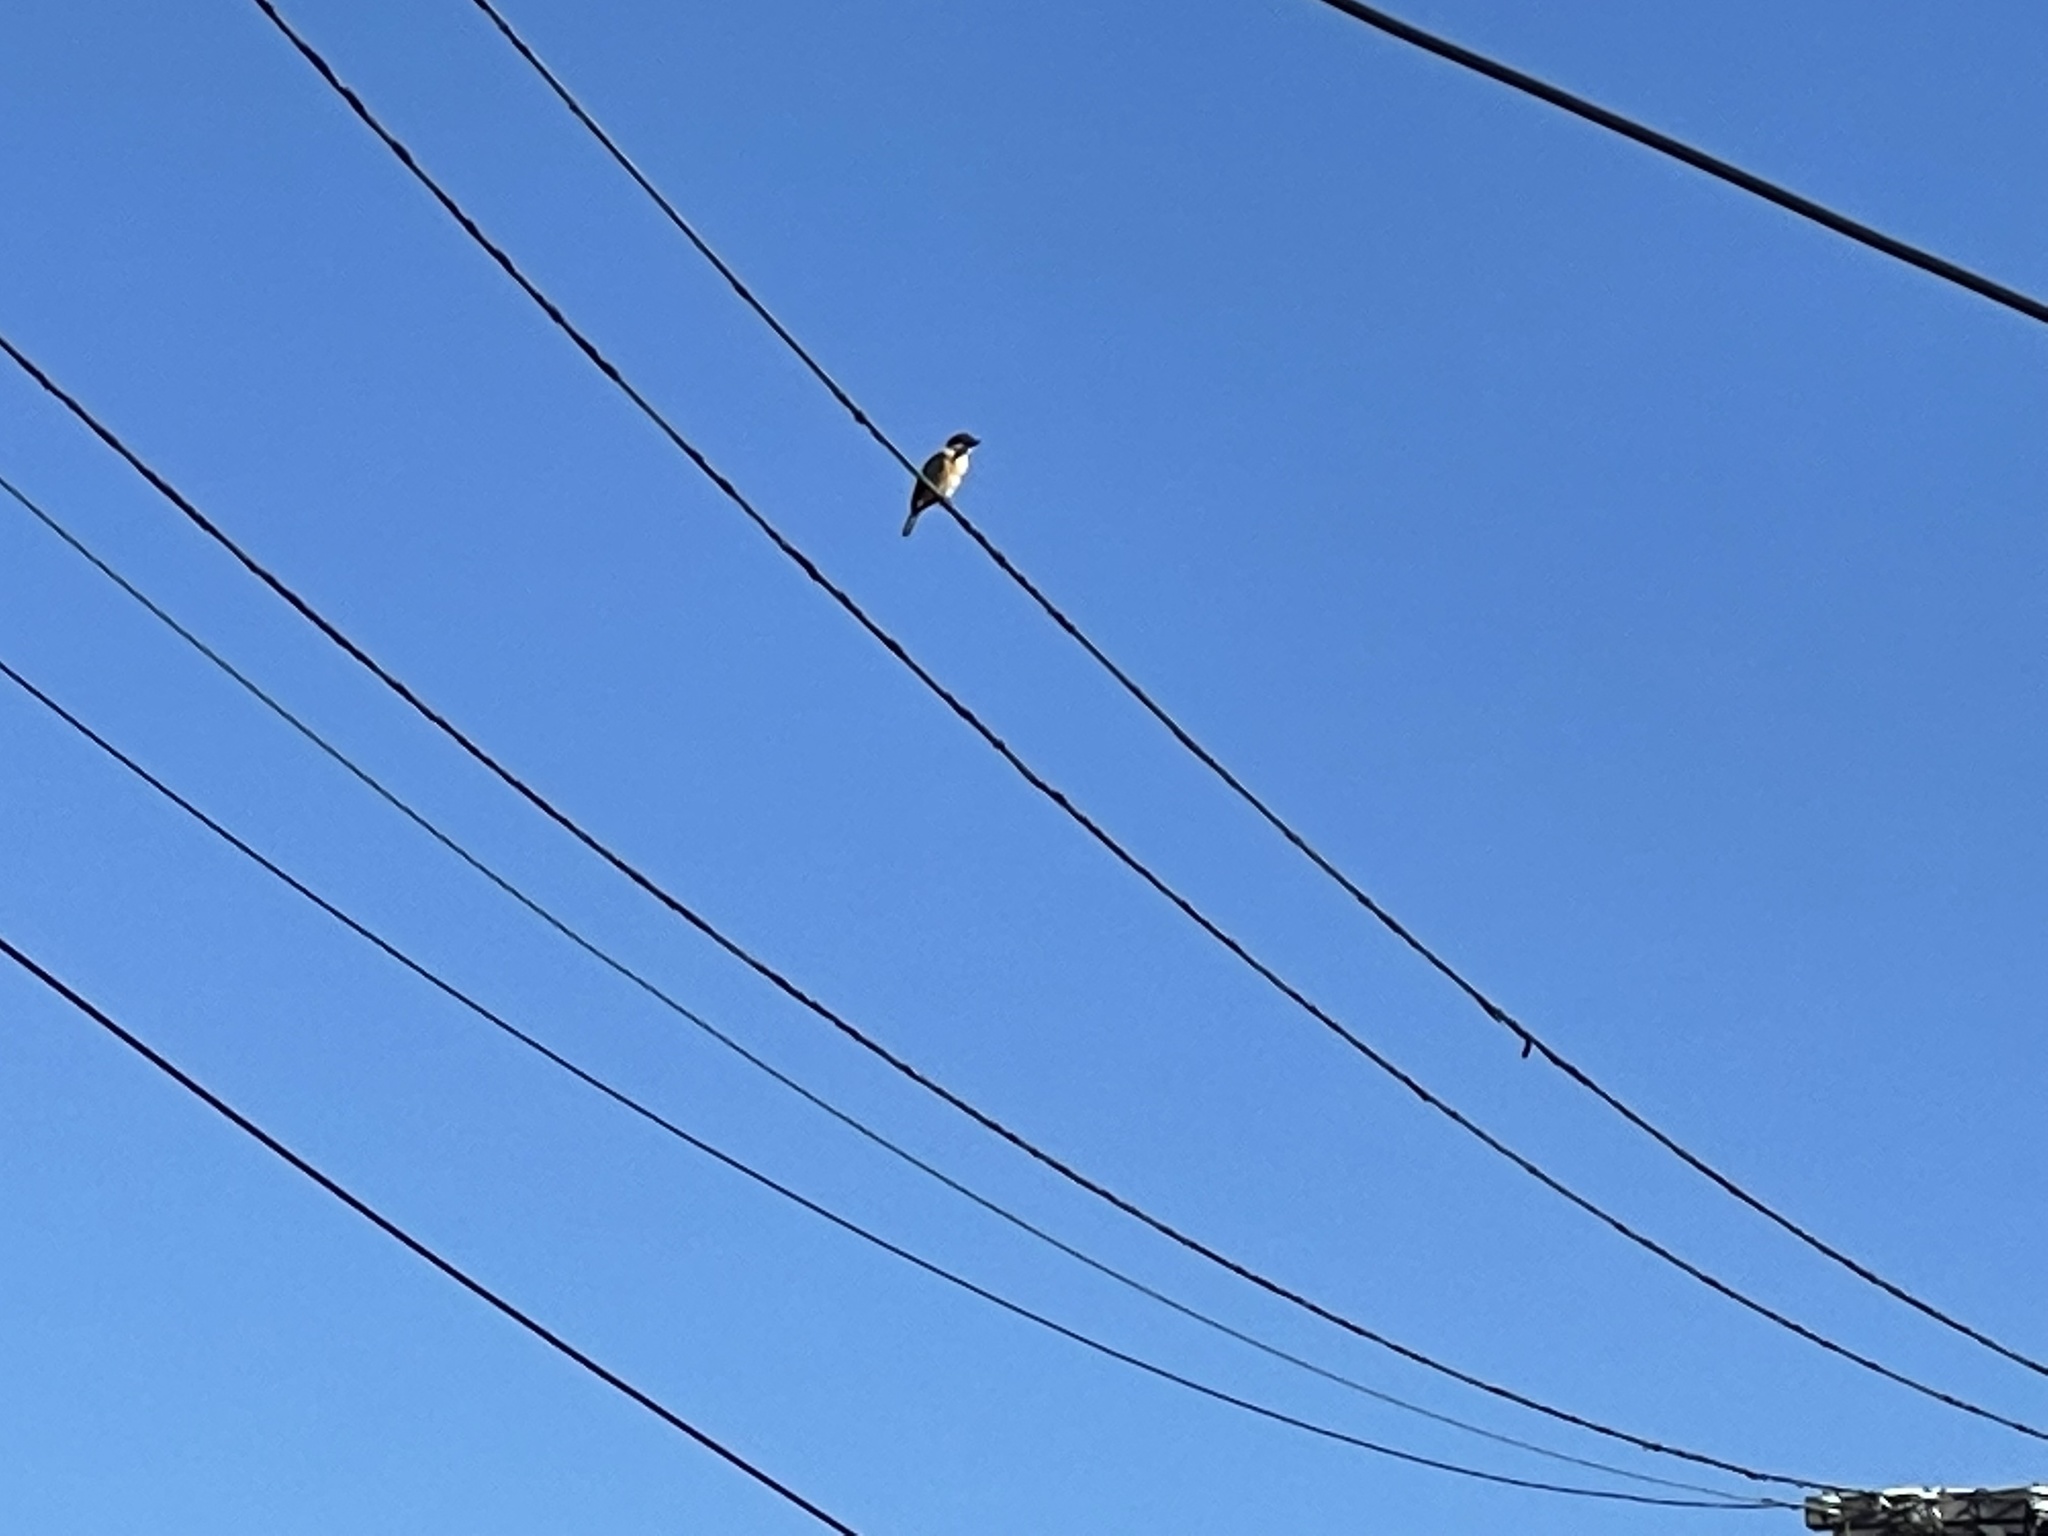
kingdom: Animalia
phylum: Chordata
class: Aves
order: Coraciiformes
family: Alcedinidae
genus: Todiramphus
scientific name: Todiramphus sanctus
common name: Sacred kingfisher
